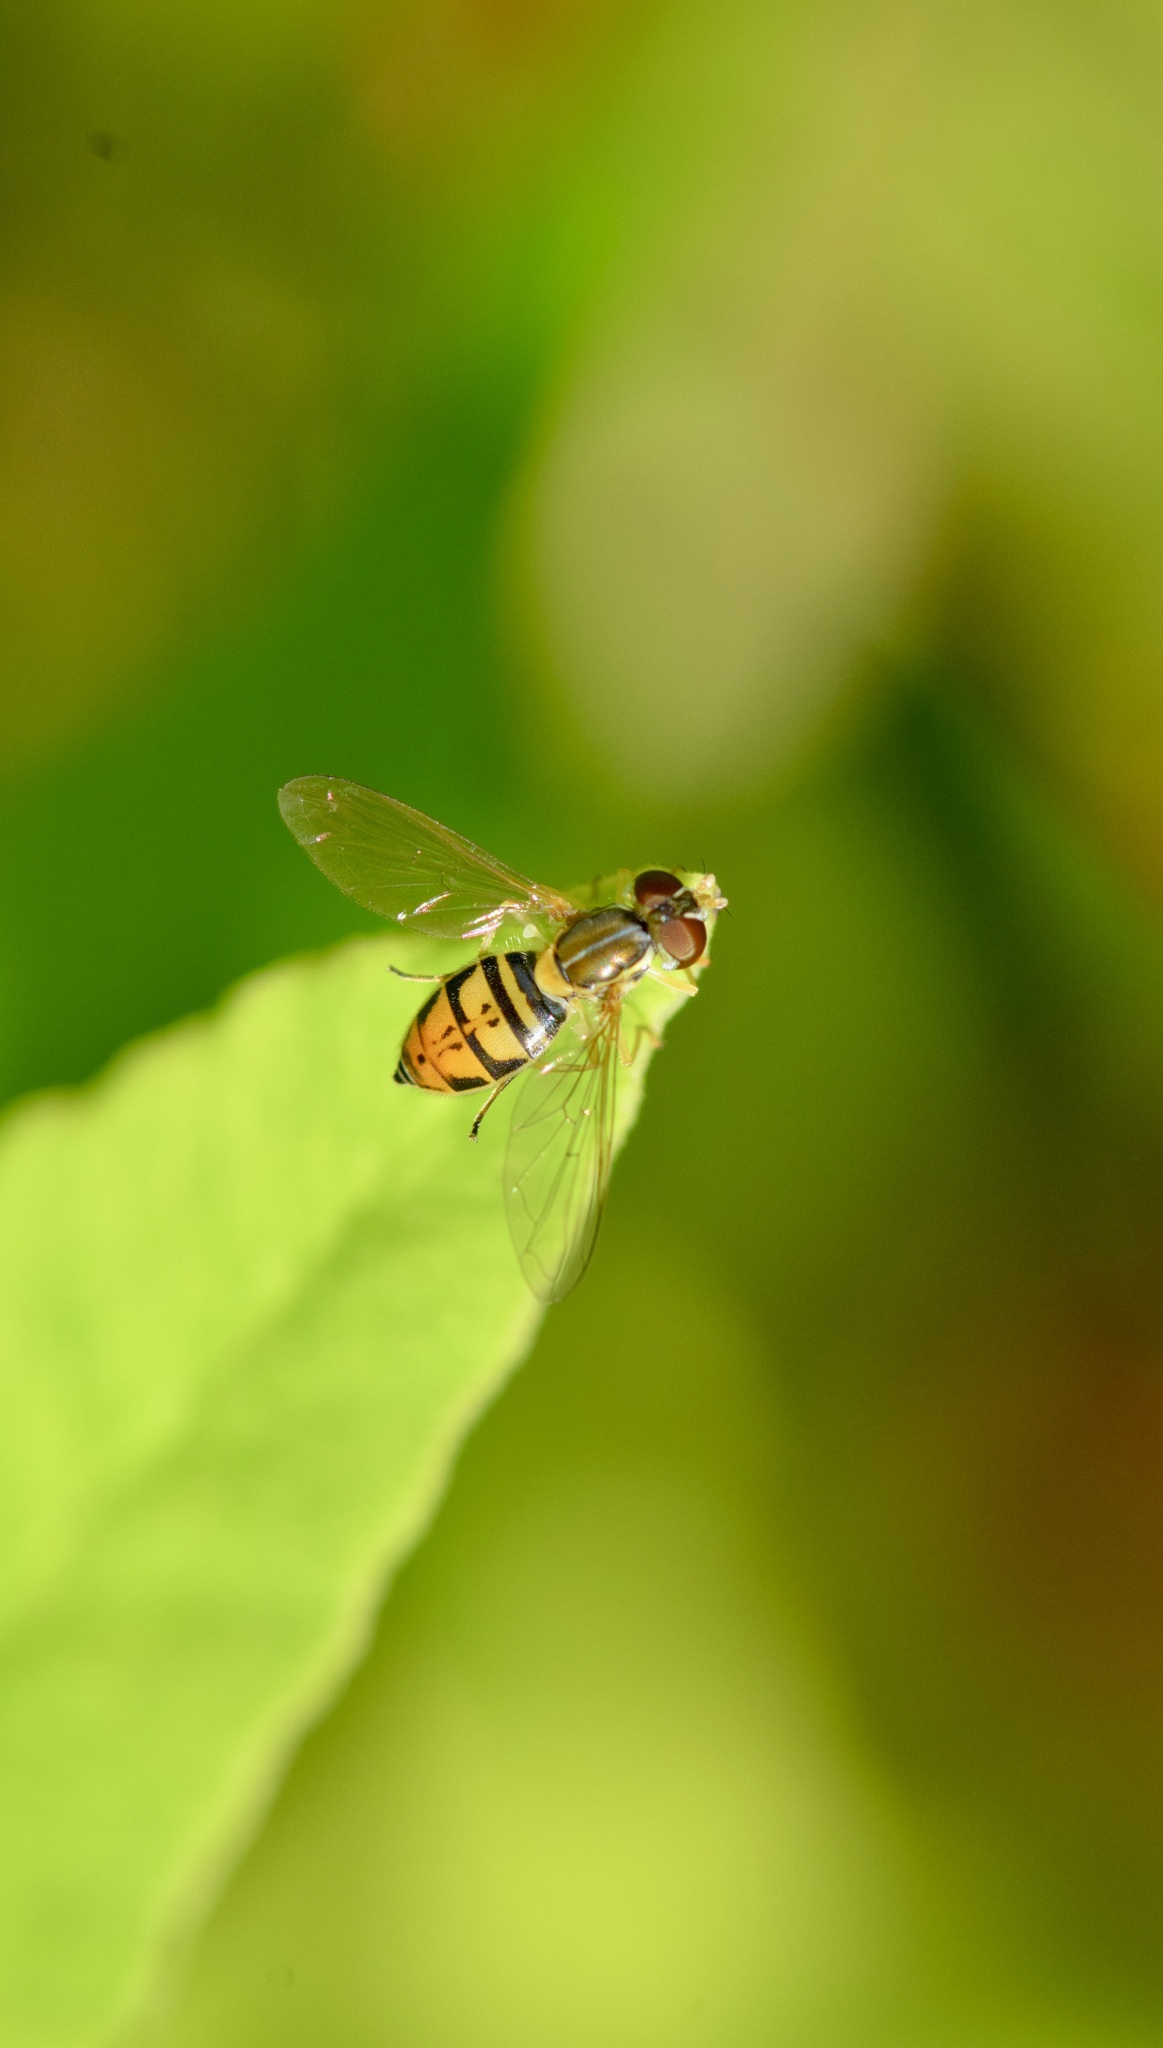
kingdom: Animalia
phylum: Arthropoda
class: Insecta
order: Diptera
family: Syrphidae
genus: Toxomerus
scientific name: Toxomerus marginatus
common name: Syrphid fly
